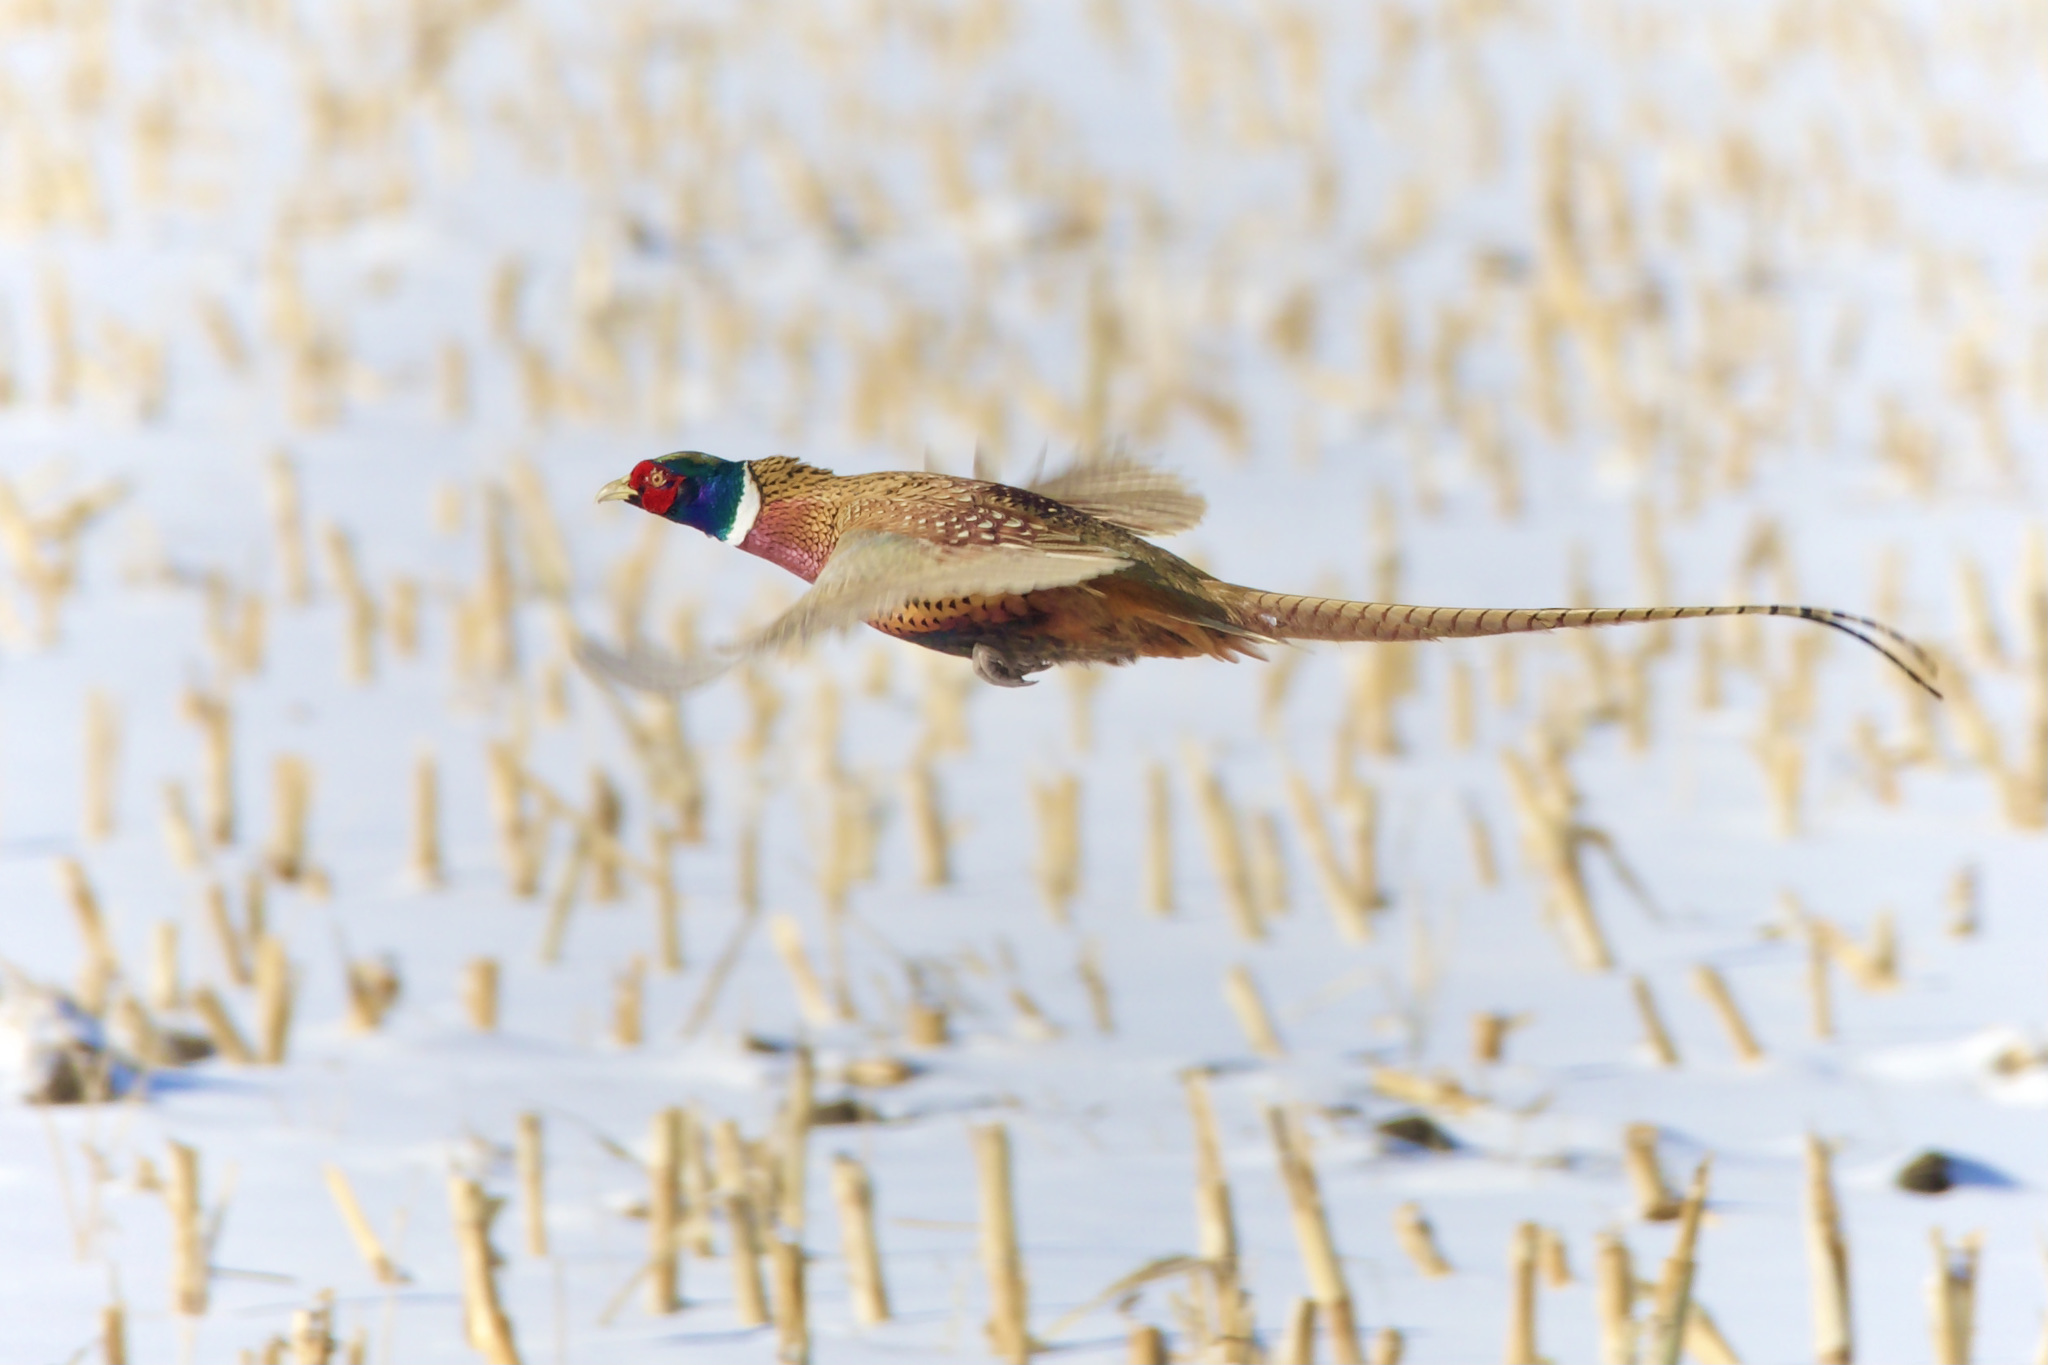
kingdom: Animalia
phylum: Chordata
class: Aves
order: Galliformes
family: Phasianidae
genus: Phasianus
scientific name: Phasianus colchicus
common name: Common pheasant
